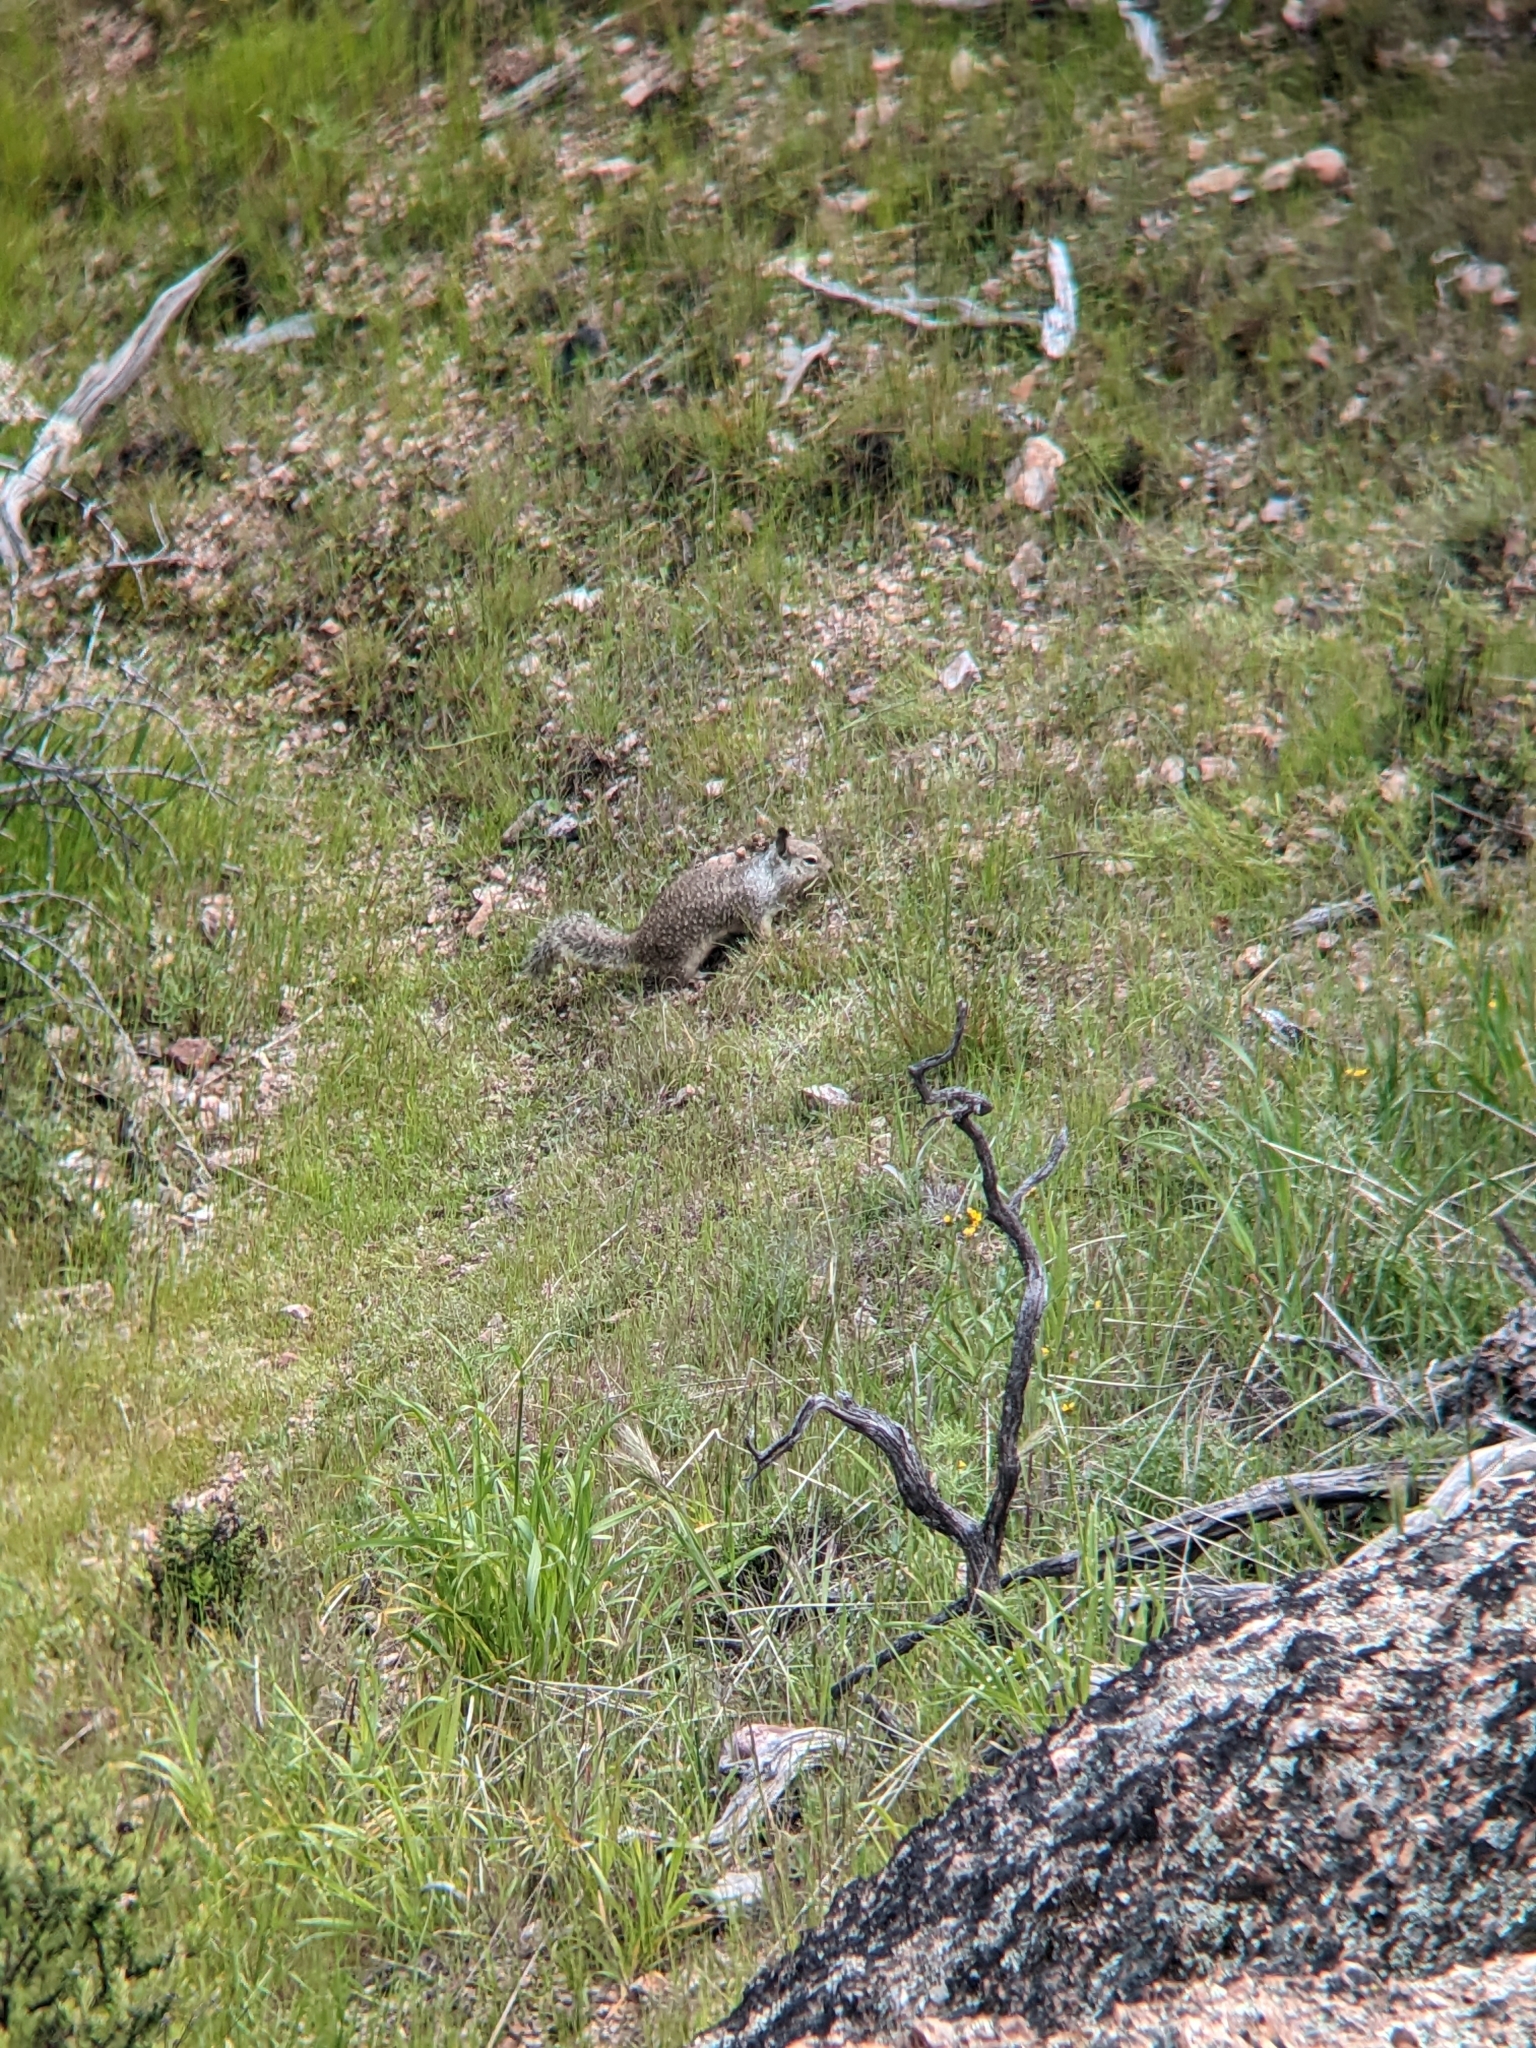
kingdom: Animalia
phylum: Chordata
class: Mammalia
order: Rodentia
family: Sciuridae
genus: Otospermophilus
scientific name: Otospermophilus beecheyi
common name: California ground squirrel
